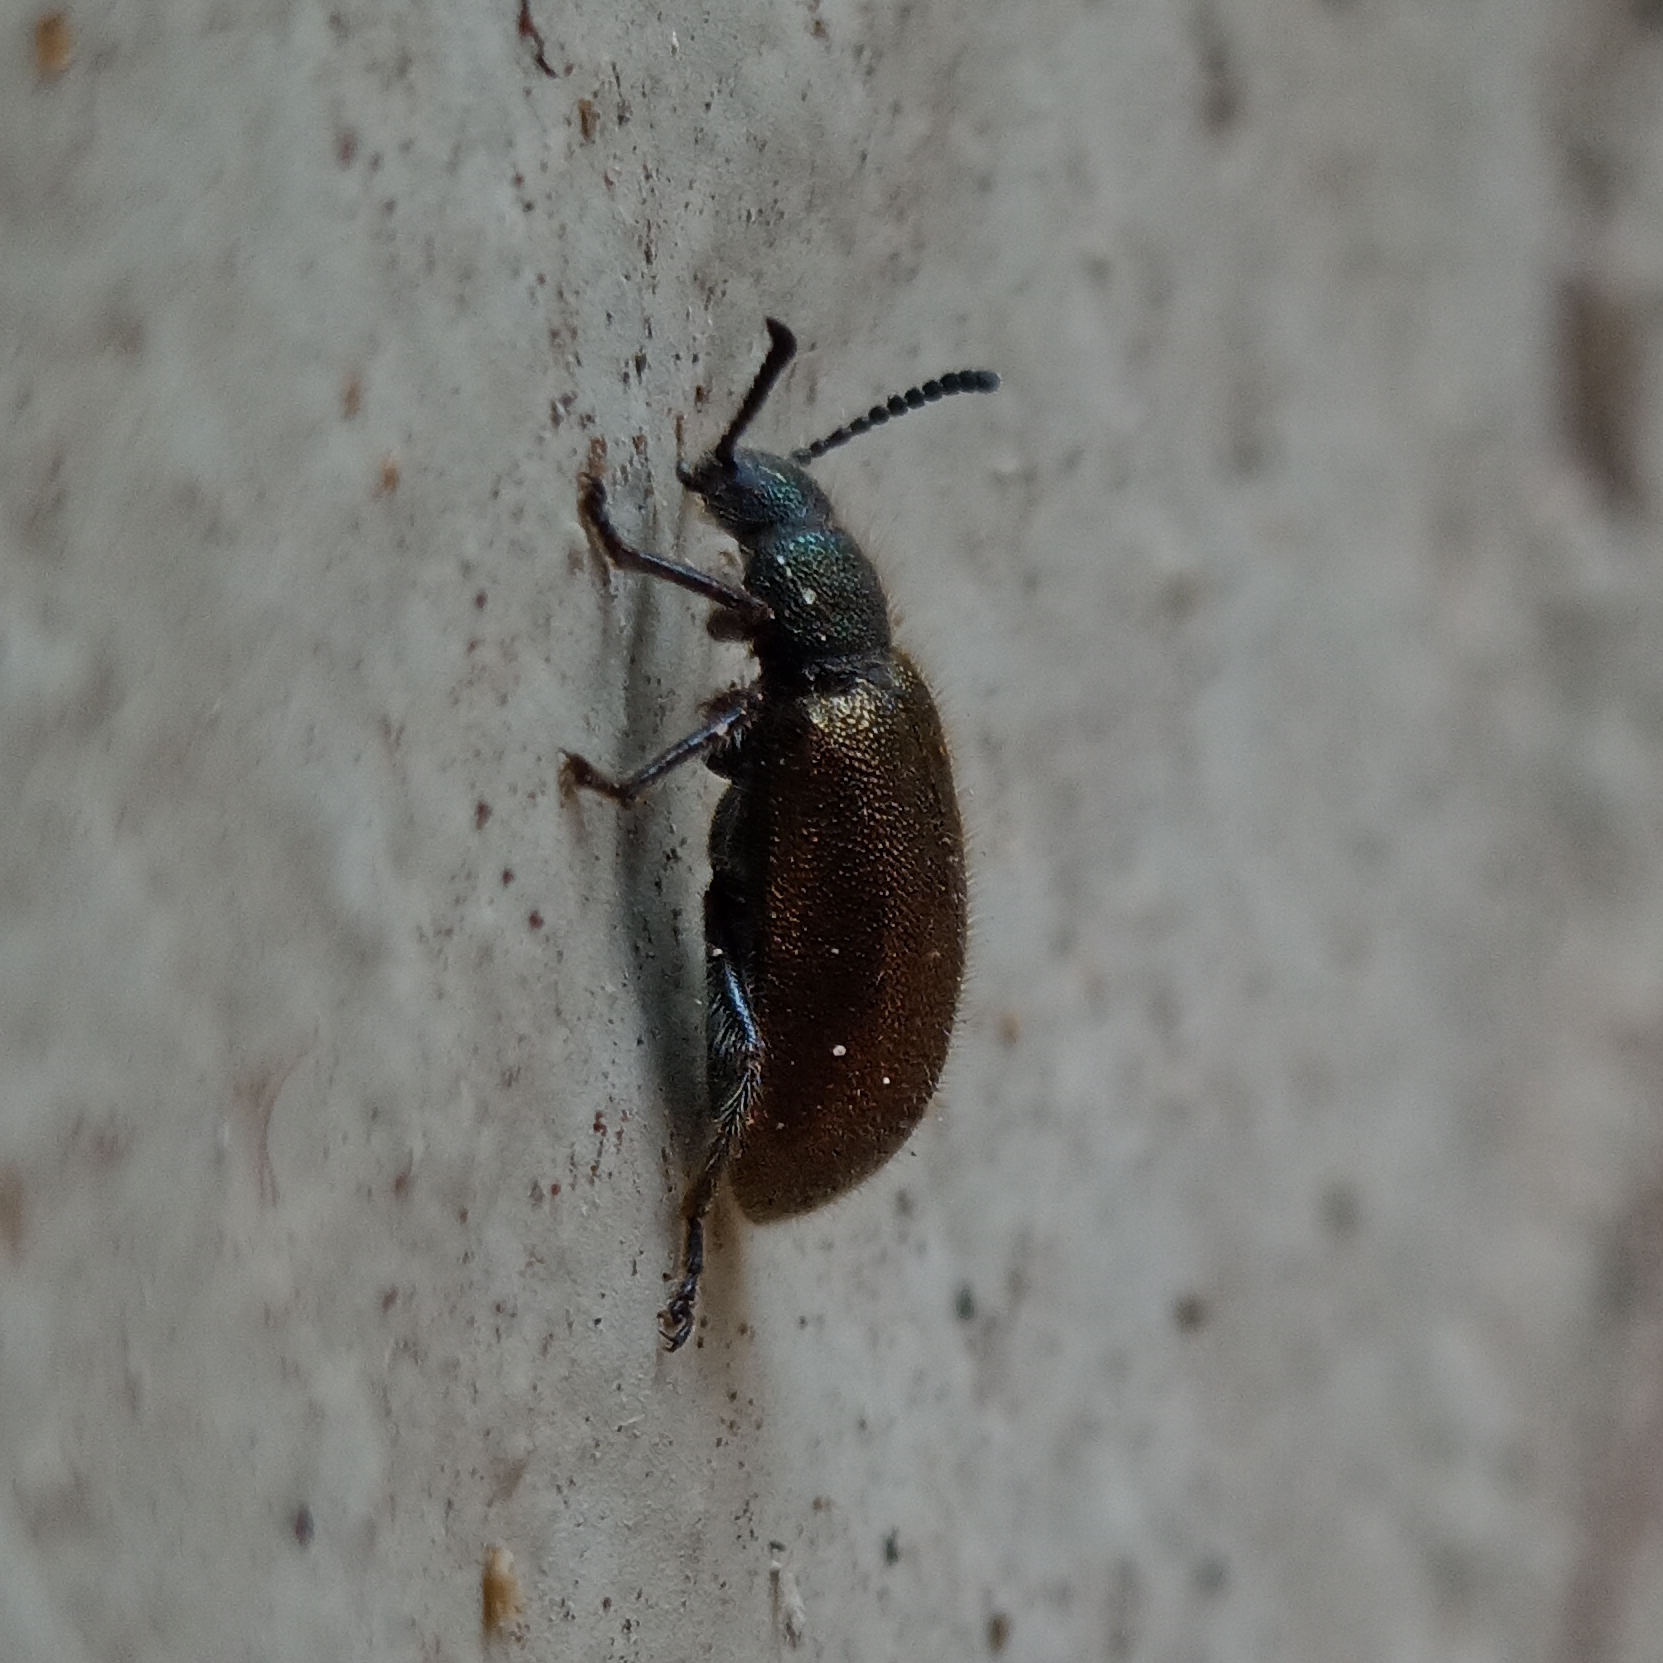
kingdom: Animalia
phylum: Arthropoda
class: Insecta
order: Coleoptera
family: Tenebrionidae
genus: Lagria
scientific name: Lagria villosa
